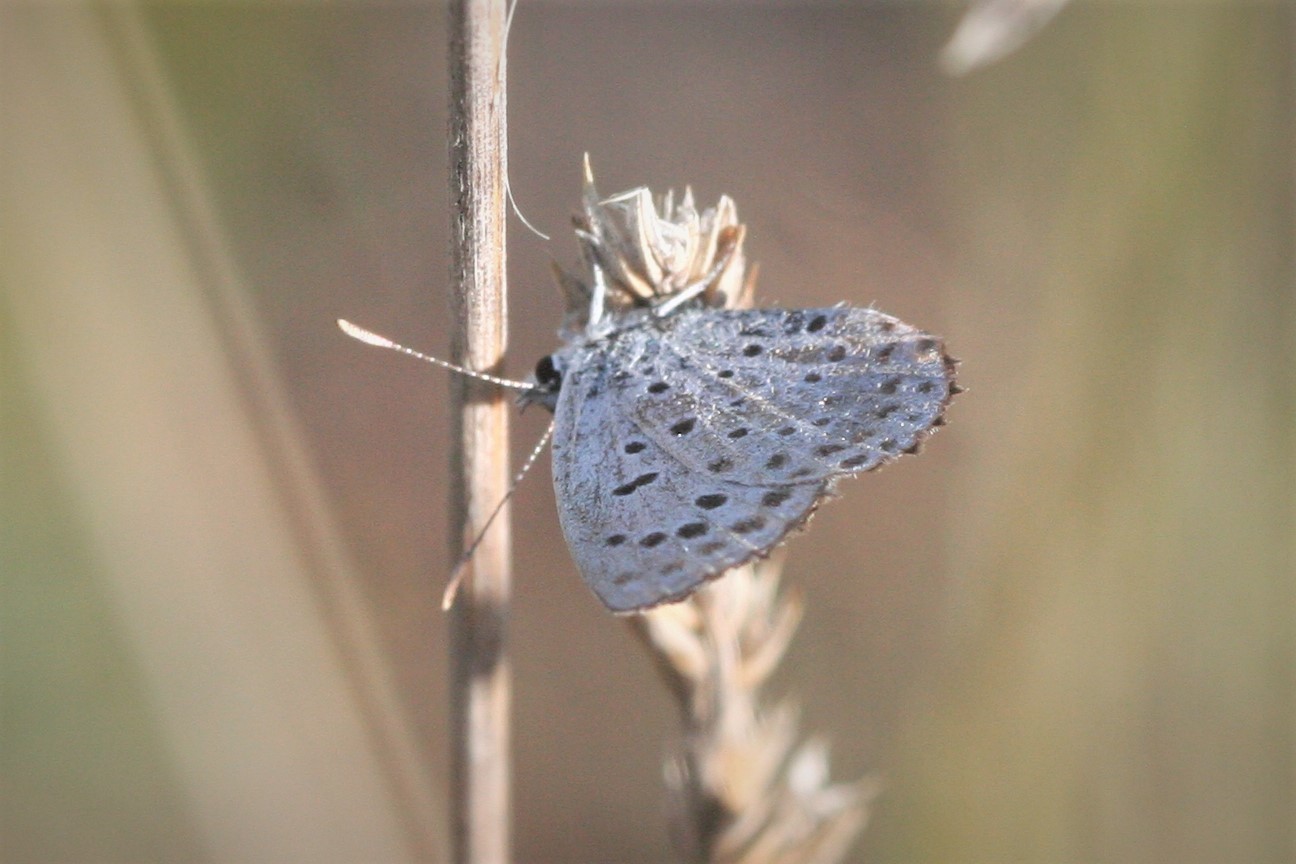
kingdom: Animalia
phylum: Arthropoda
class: Insecta
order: Lepidoptera
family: Lycaenidae
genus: Pseudophilotes
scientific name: Pseudophilotes baton
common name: Baton blue
